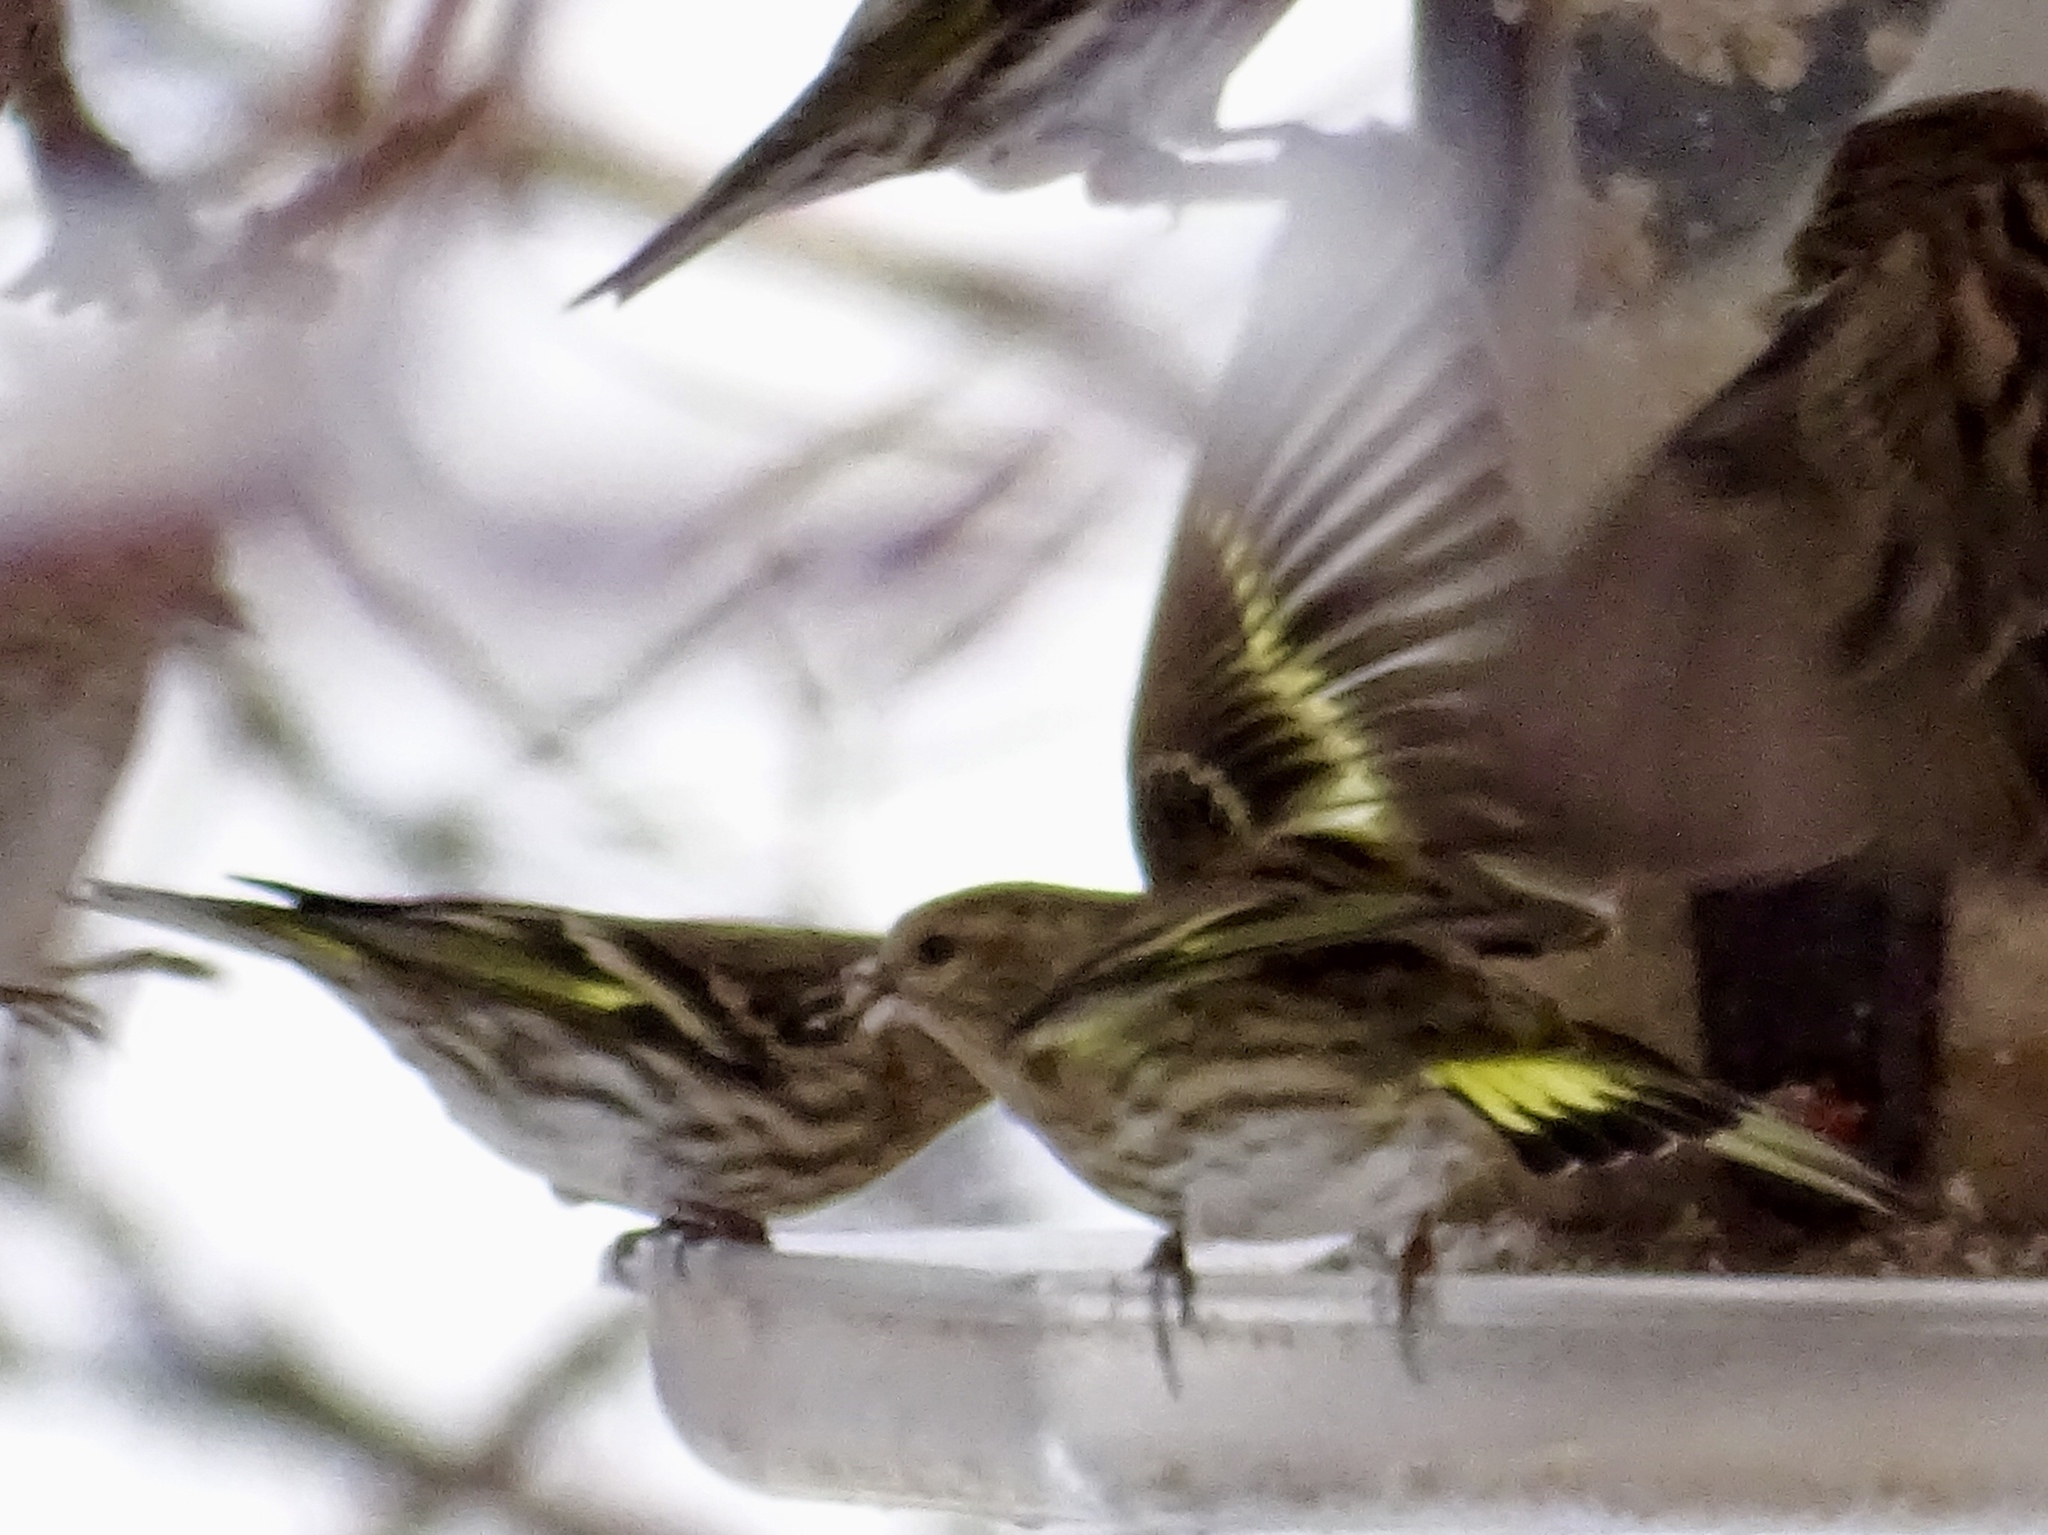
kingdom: Animalia
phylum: Chordata
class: Aves
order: Passeriformes
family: Fringillidae
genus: Spinus
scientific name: Spinus pinus
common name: Pine siskin
